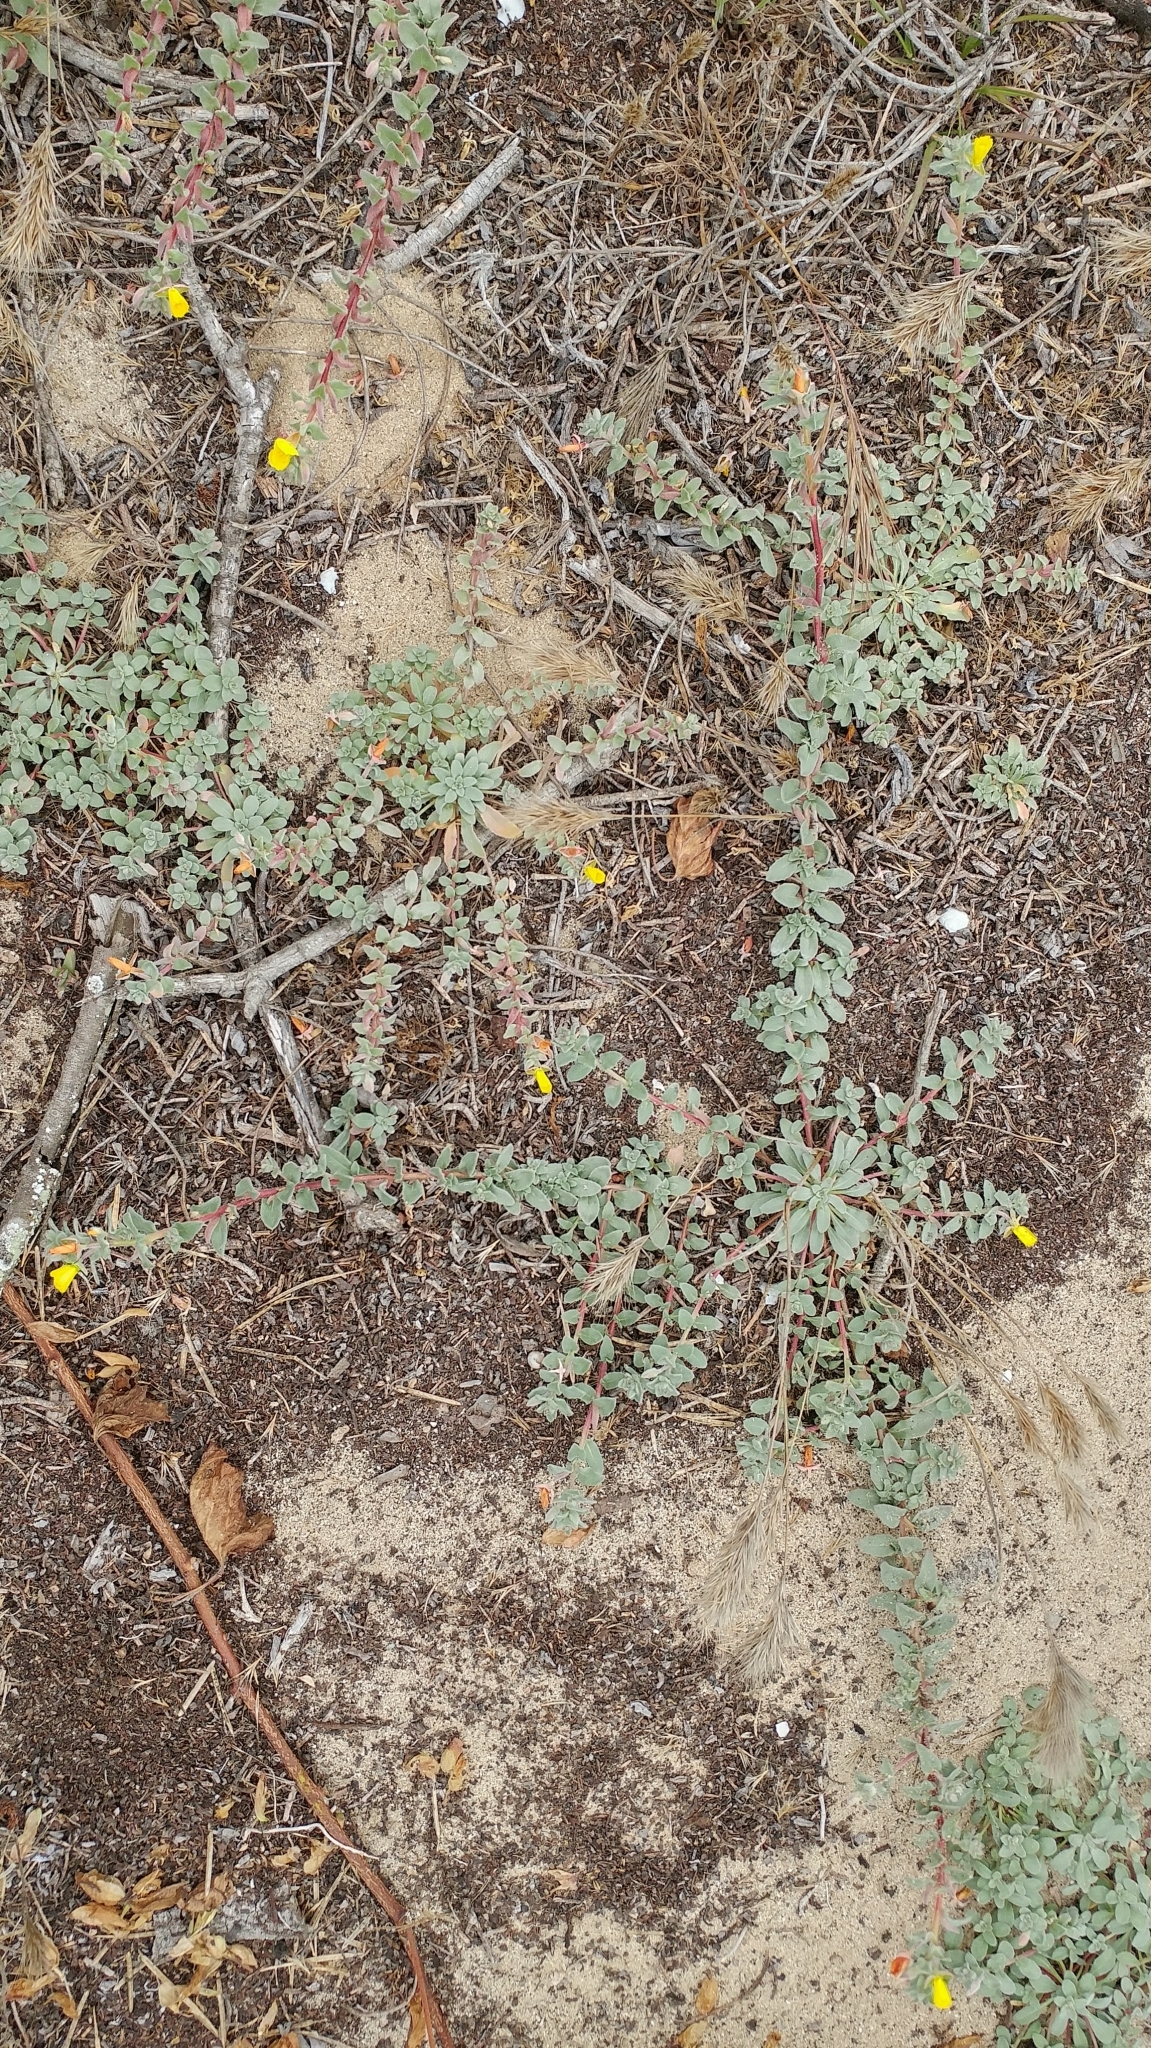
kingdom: Plantae
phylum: Tracheophyta
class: Magnoliopsida
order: Myrtales
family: Onagraceae
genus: Camissoniopsis
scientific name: Camissoniopsis cheiranthifolia
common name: Beach suncup
